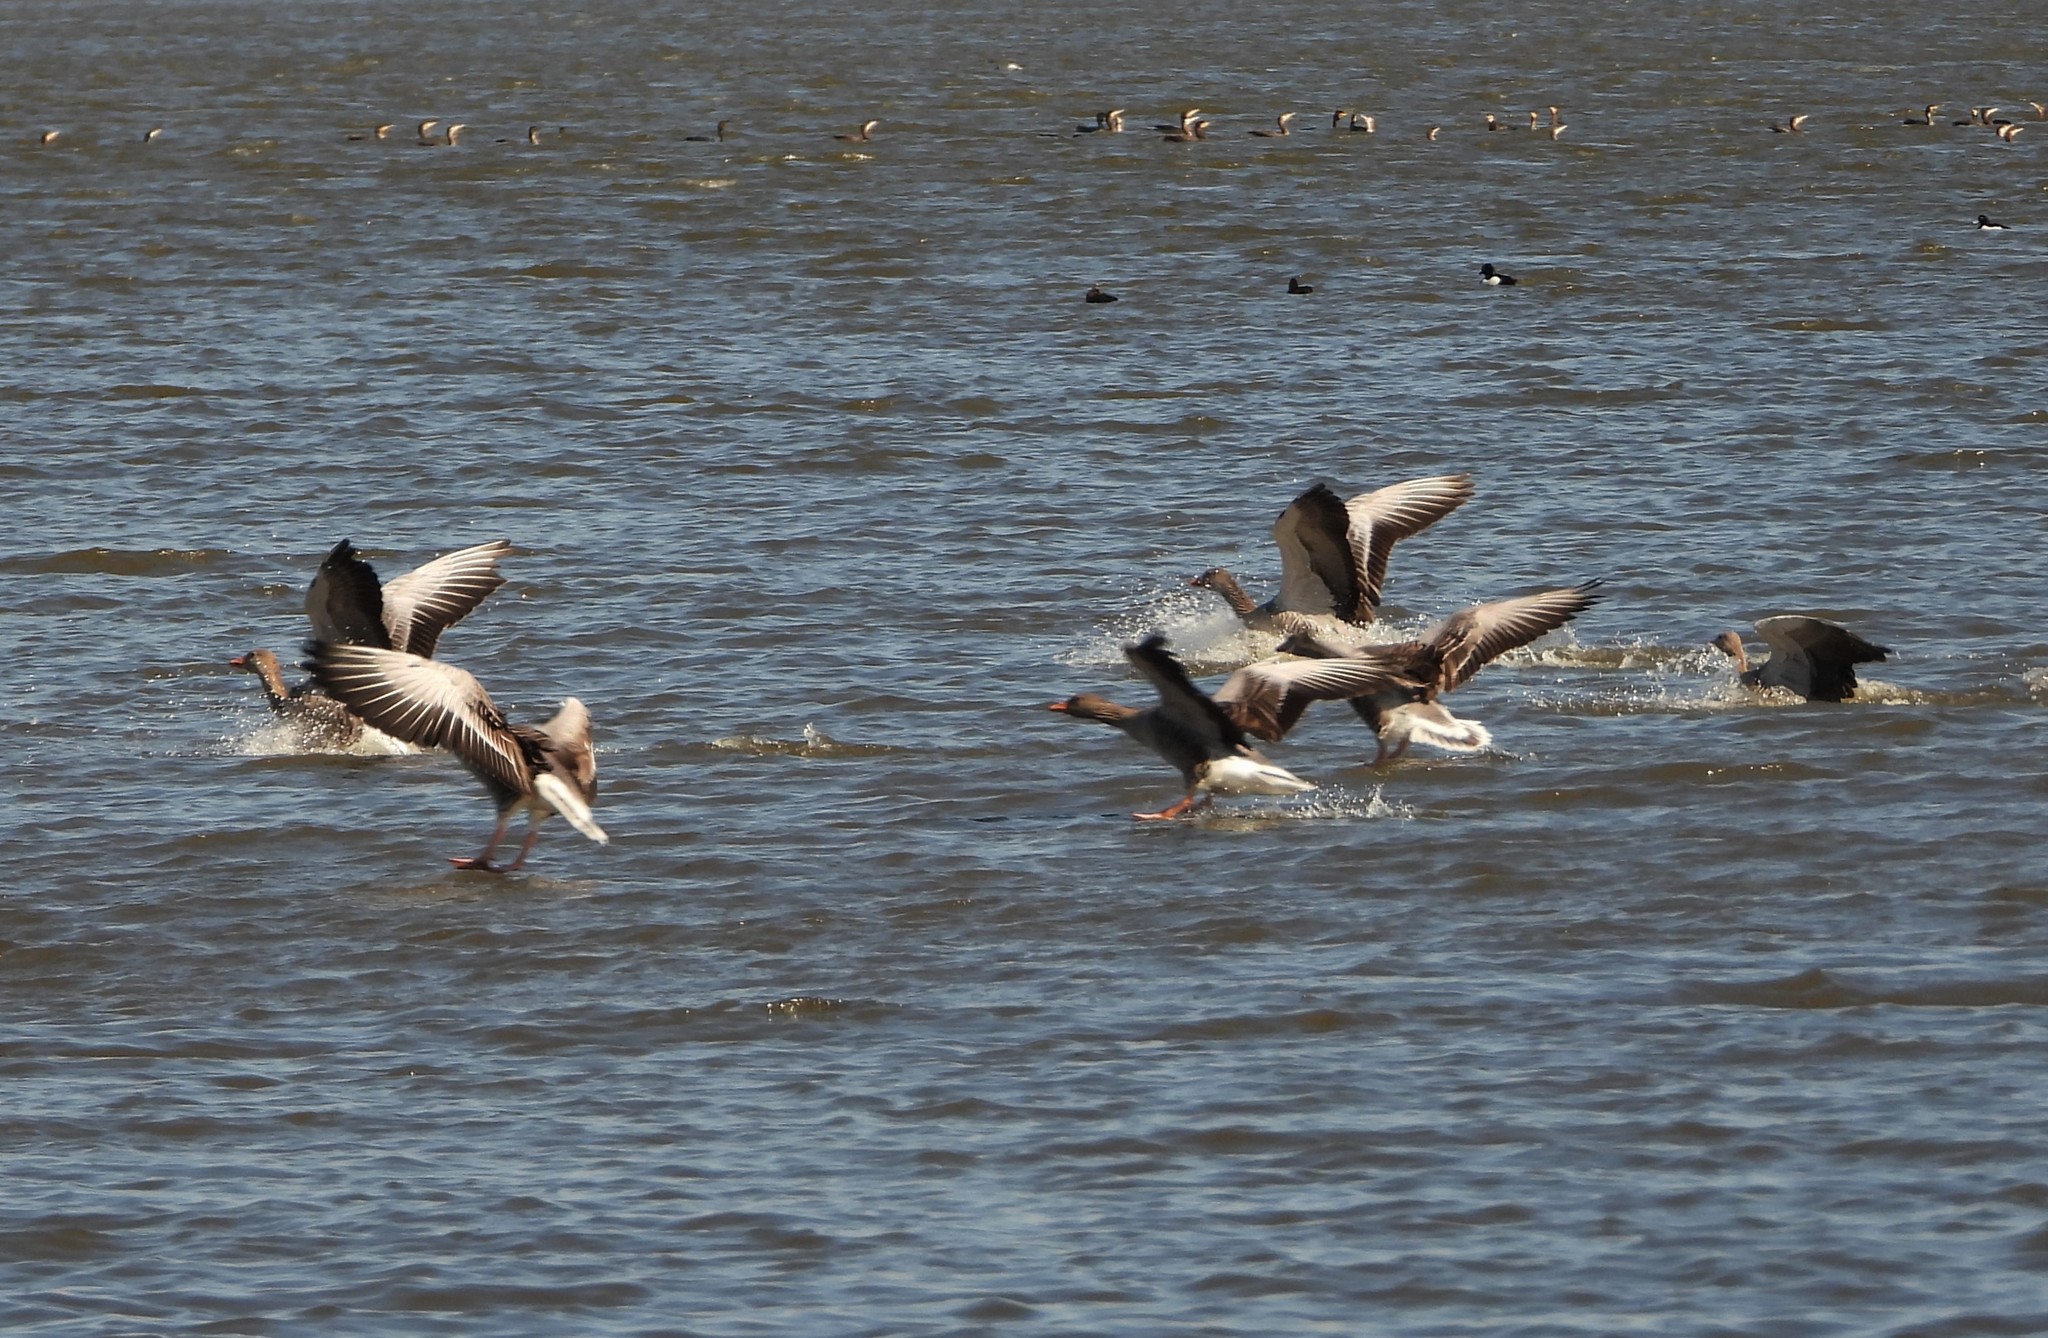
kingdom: Animalia
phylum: Chordata
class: Aves
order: Anseriformes
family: Anatidae
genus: Anser
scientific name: Anser anser
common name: Greylag goose
